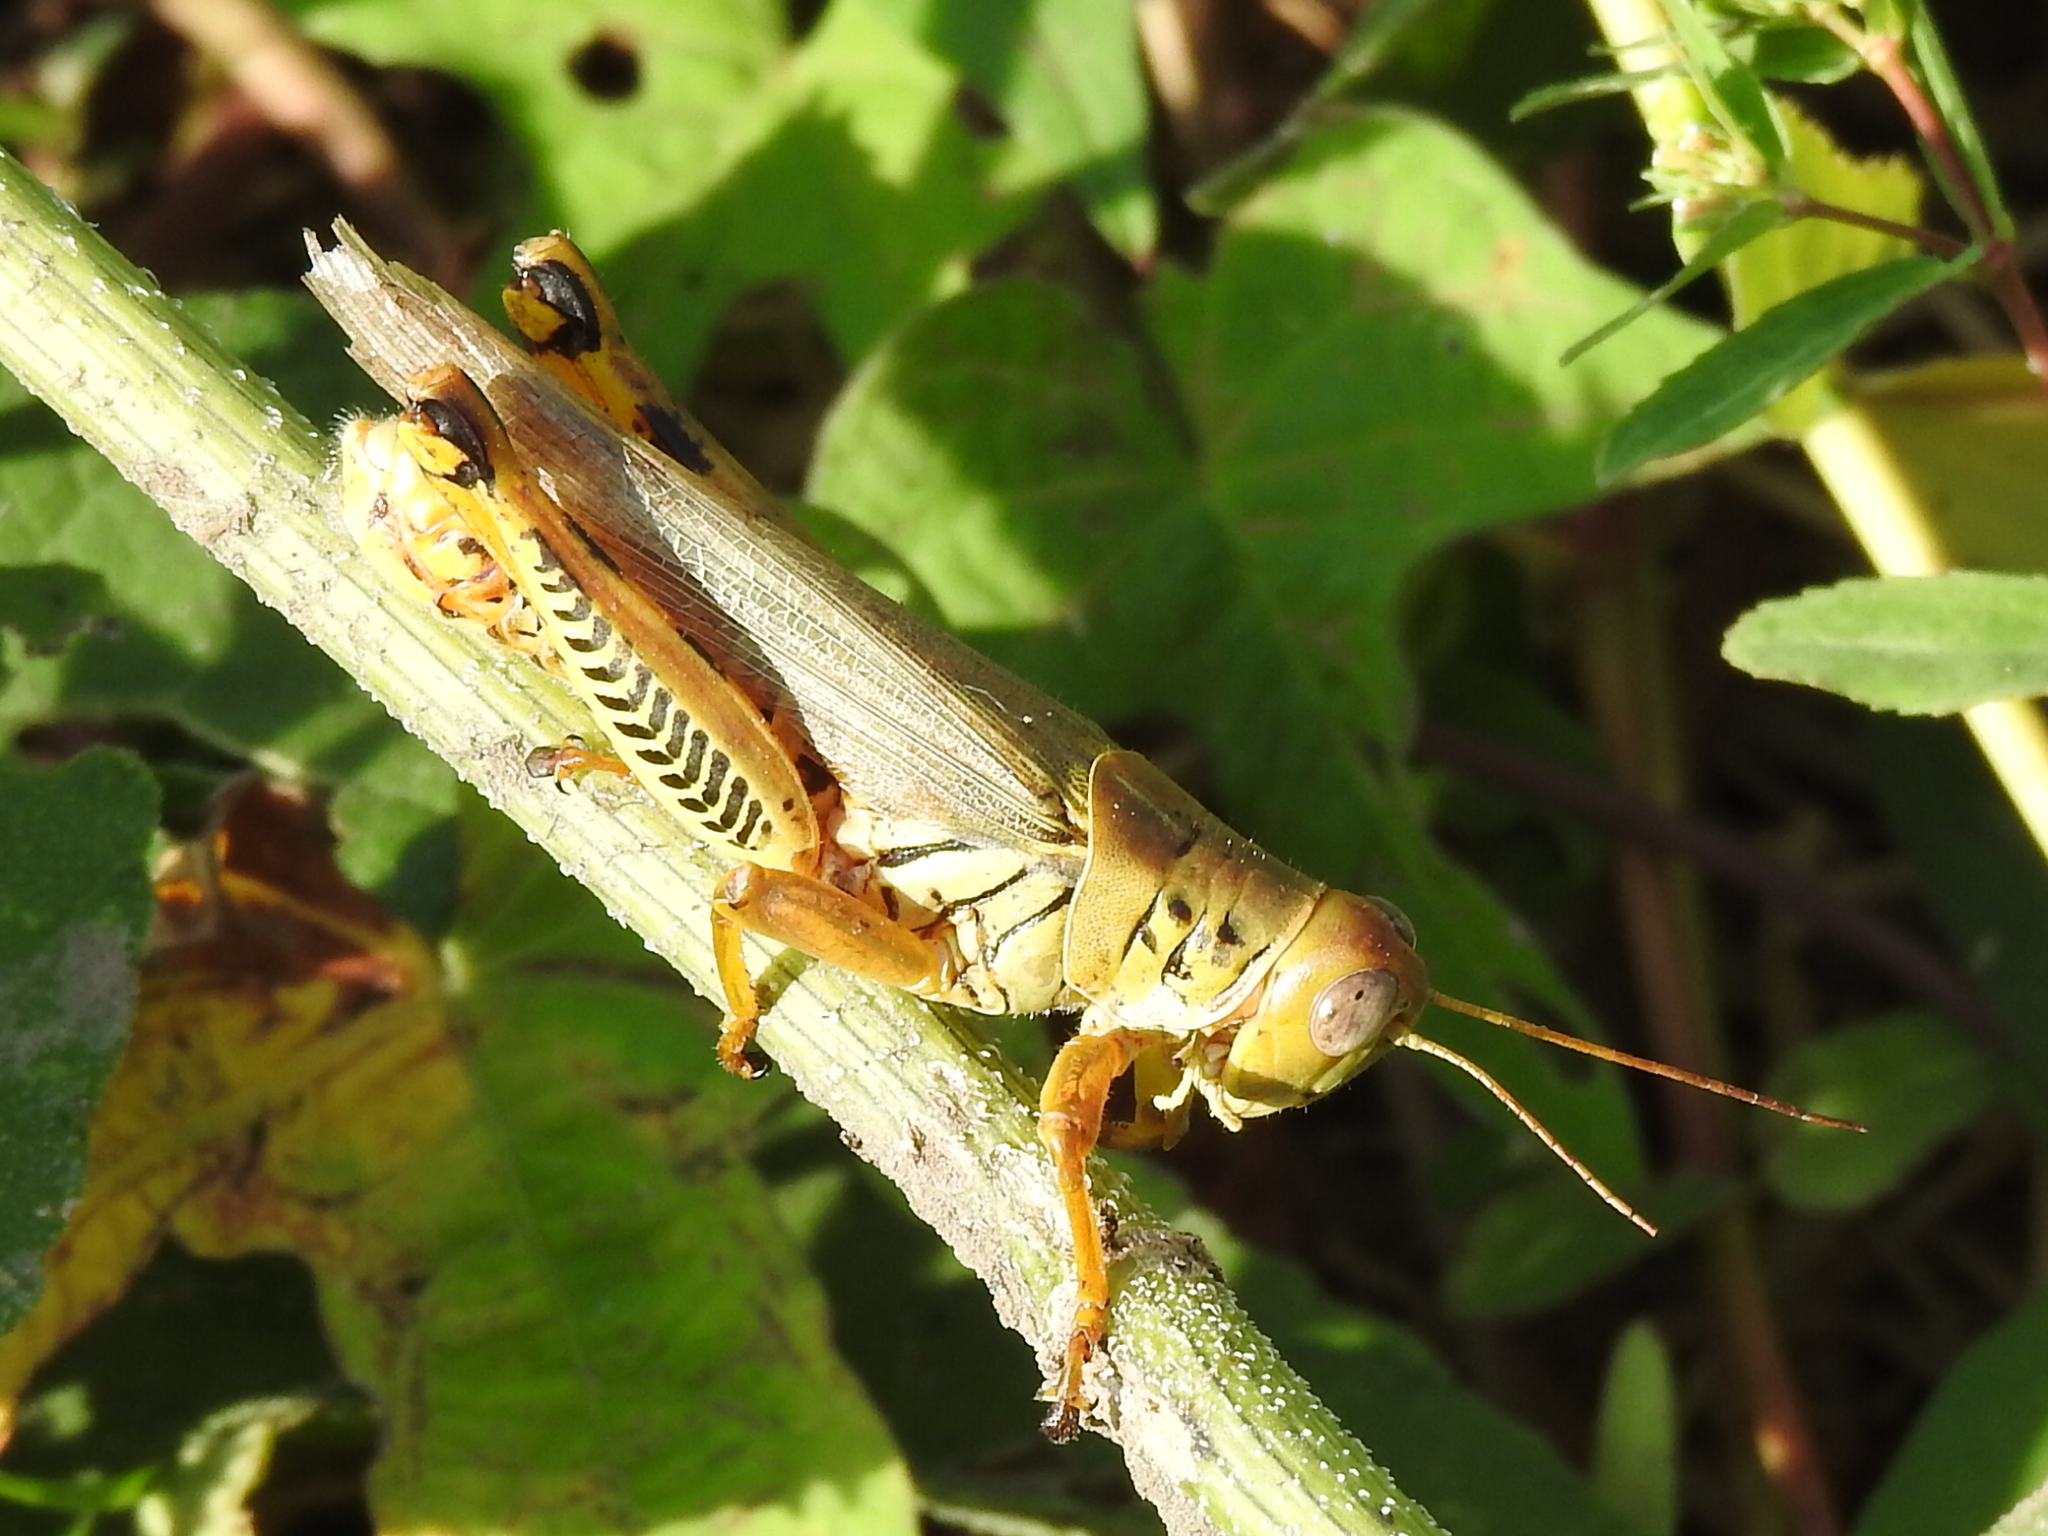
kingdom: Animalia
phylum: Arthropoda
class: Insecta
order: Orthoptera
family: Acrididae
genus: Melanoplus
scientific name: Melanoplus differentialis
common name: Differential grasshopper
